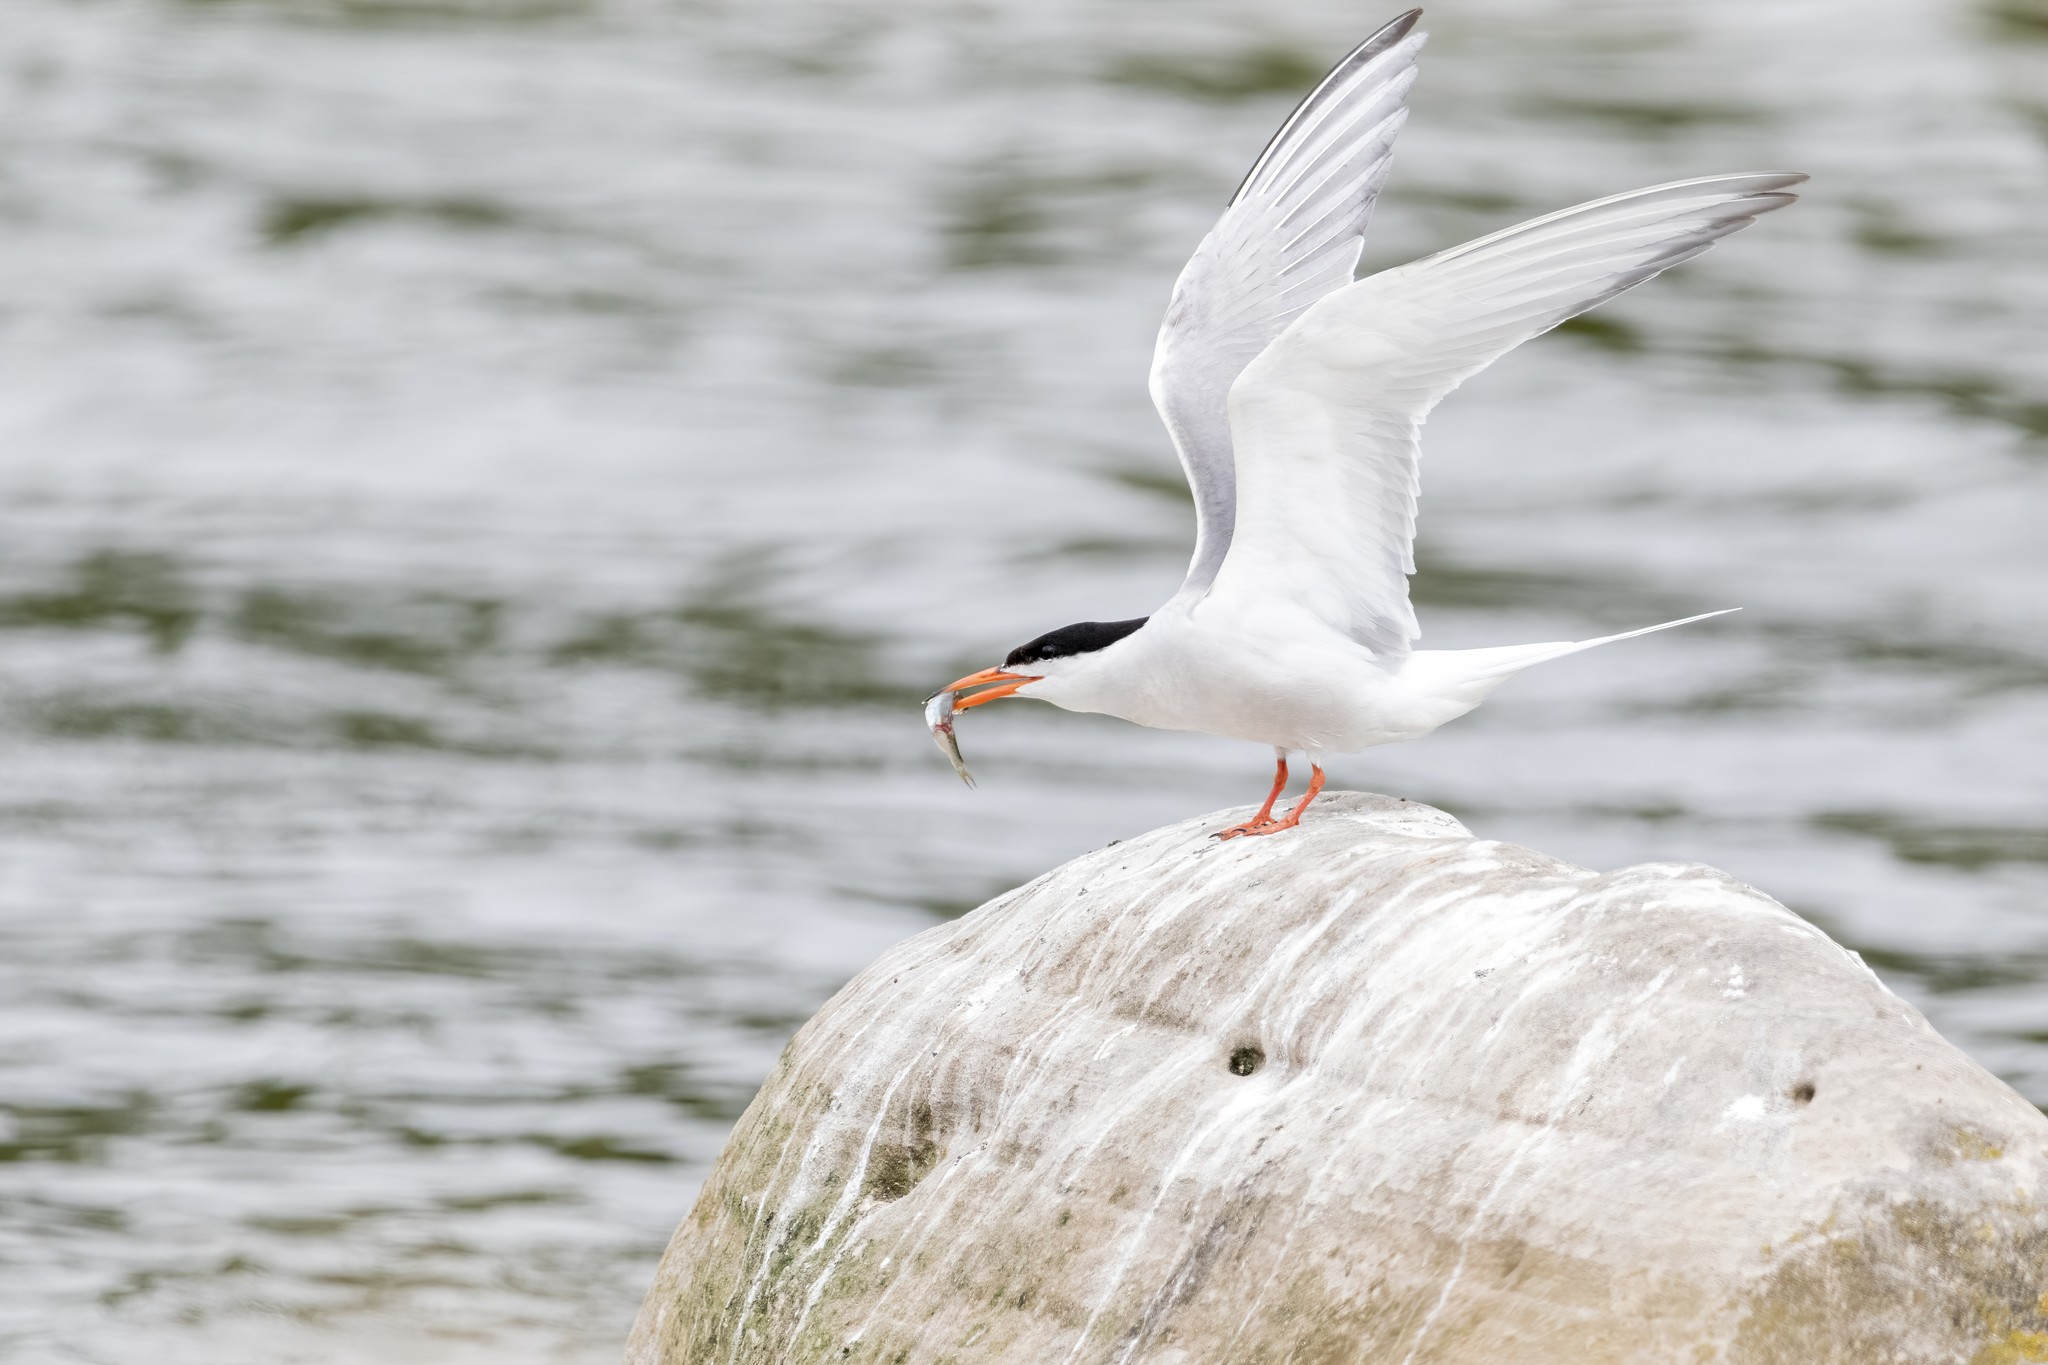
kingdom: Animalia
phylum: Chordata
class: Aves
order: Charadriiformes
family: Laridae
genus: Sterna
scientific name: Sterna hirundo
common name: Common tern
